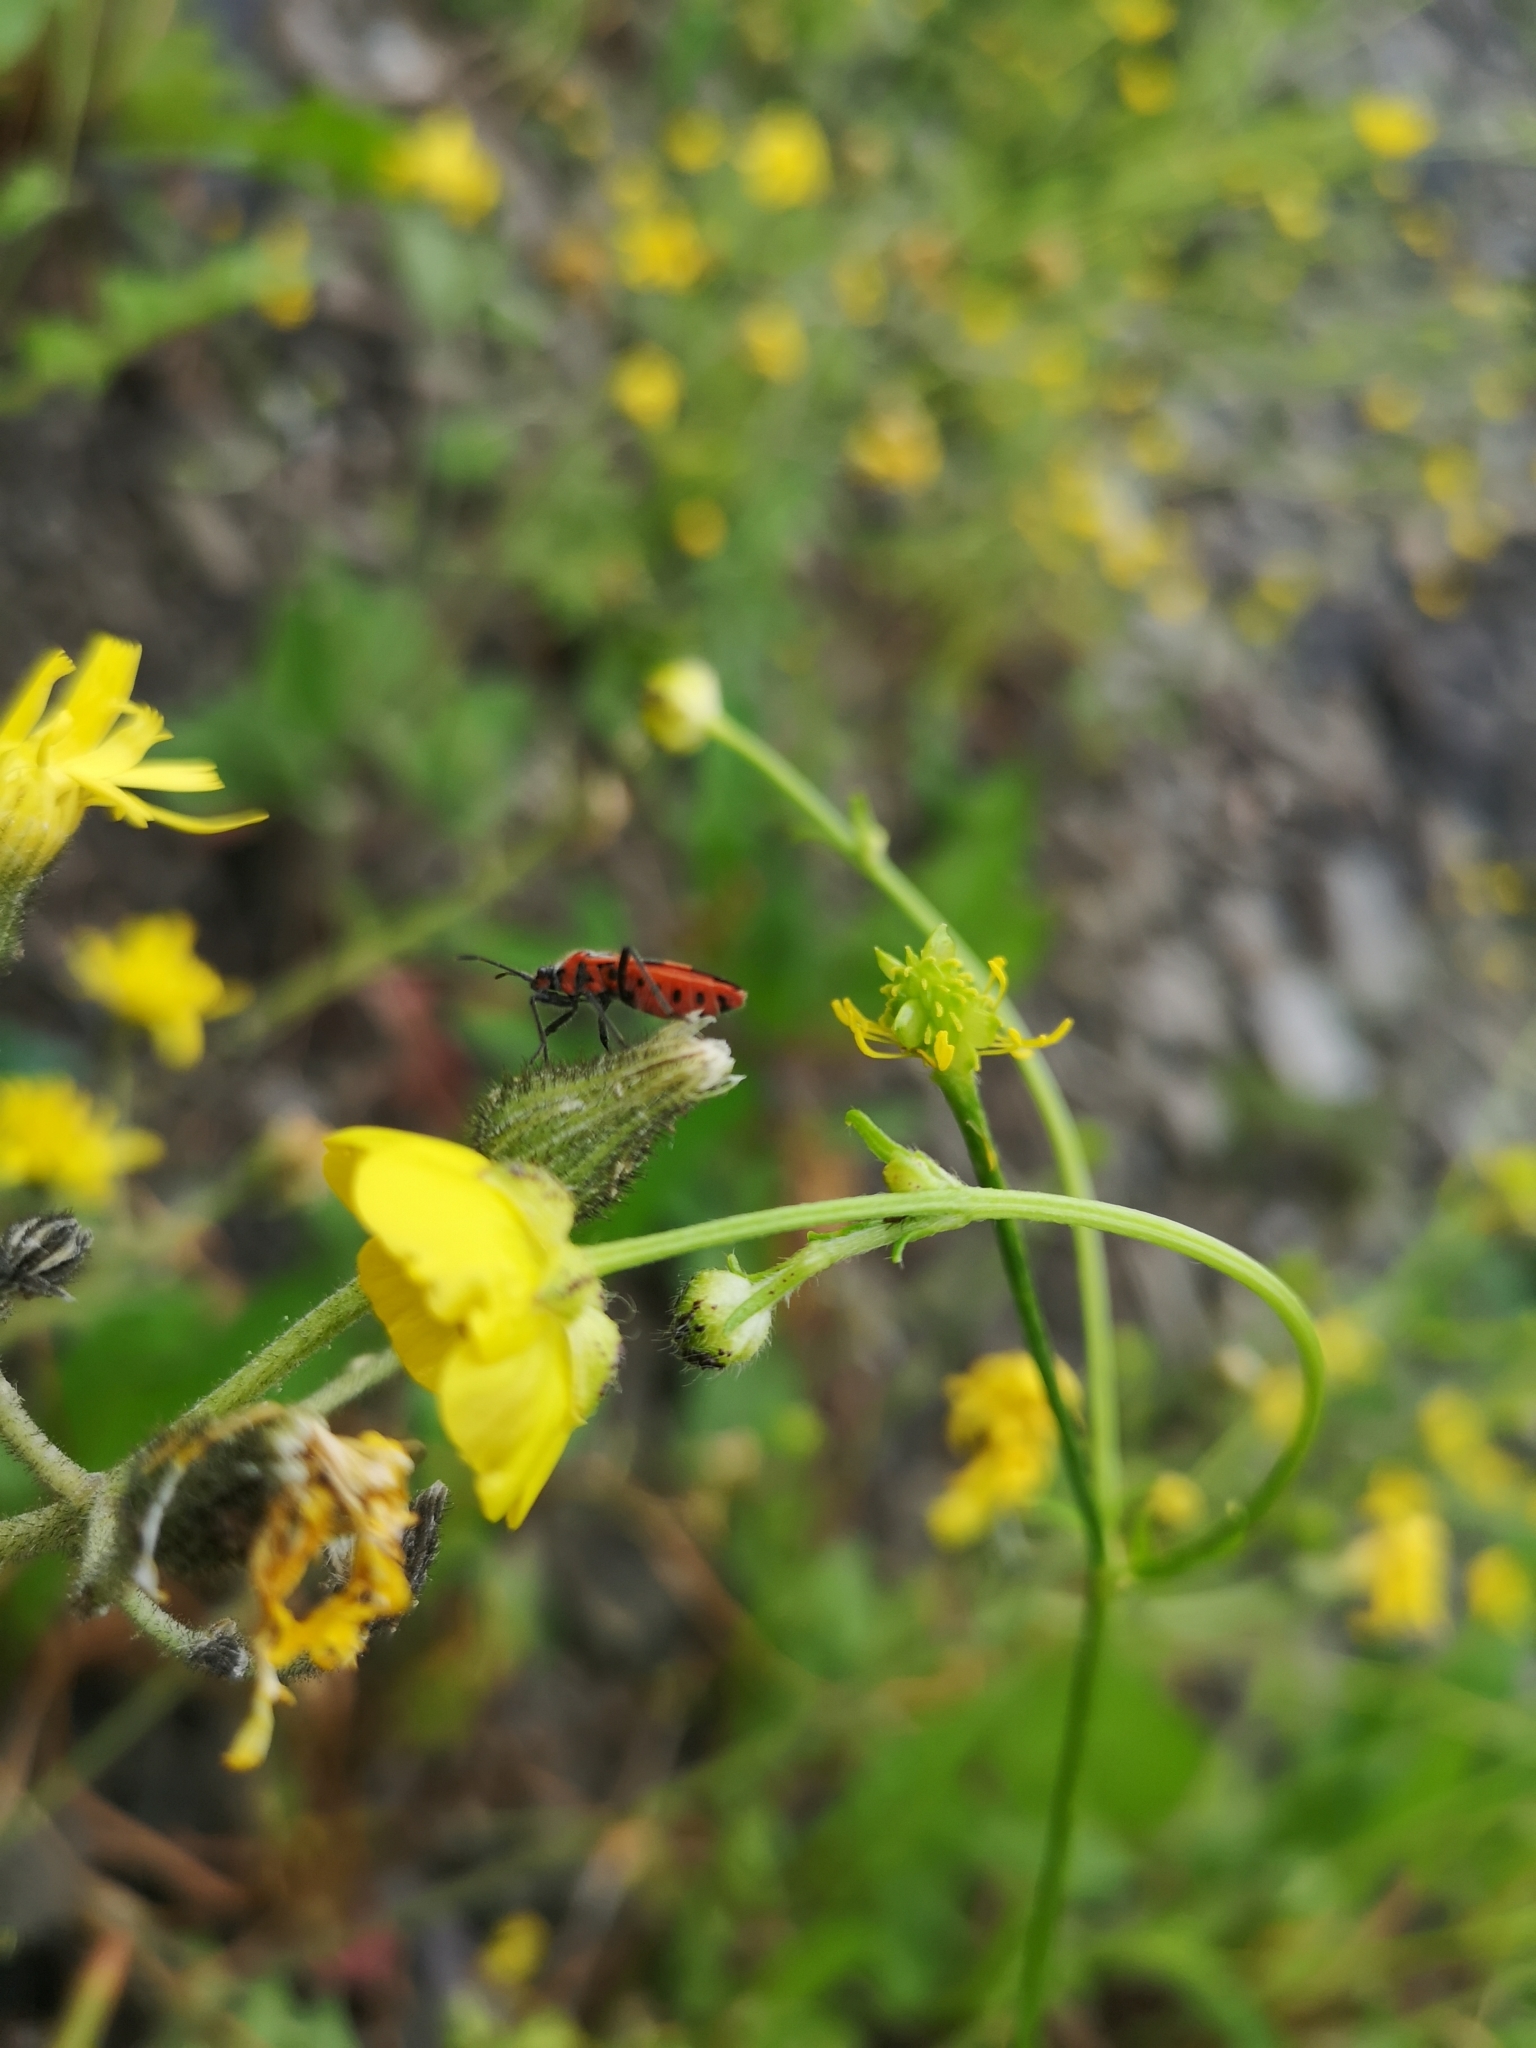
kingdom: Animalia
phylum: Arthropoda
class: Insecta
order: Hemiptera
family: Rhopalidae
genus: Corizus
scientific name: Corizus hyoscyami
